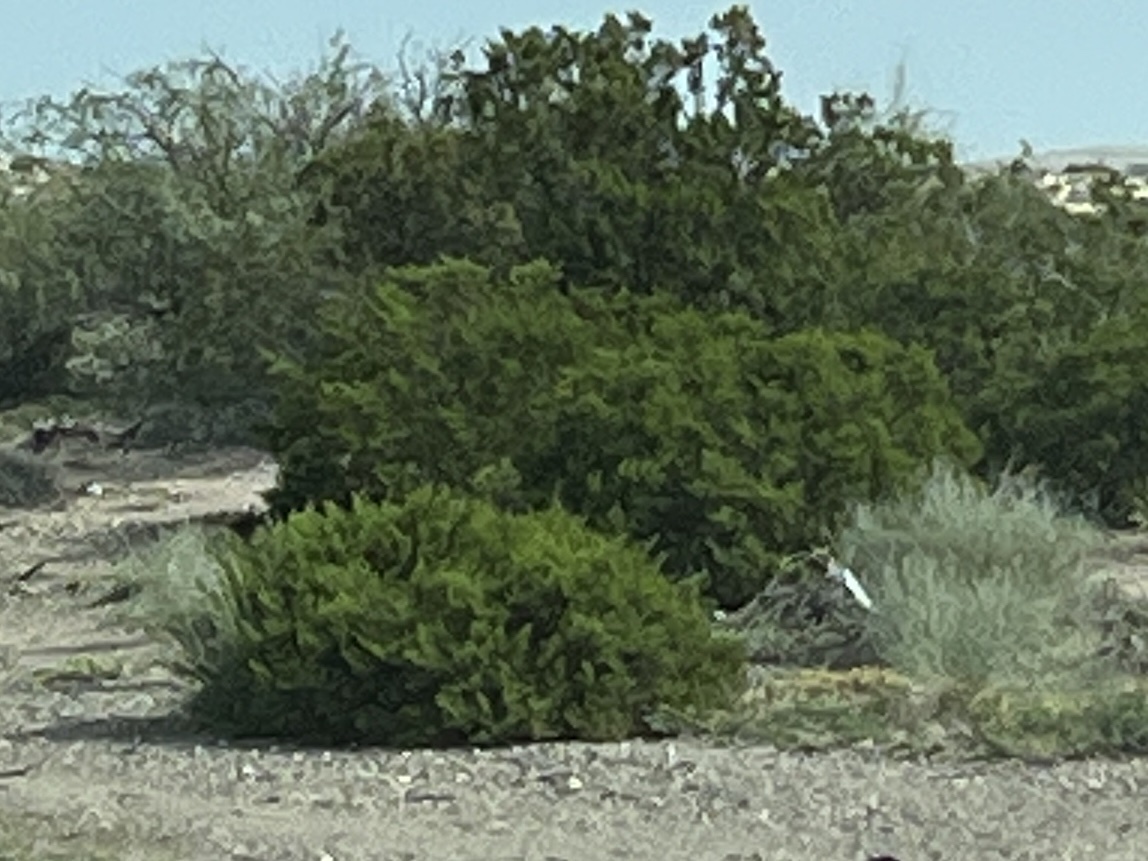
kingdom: Plantae
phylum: Tracheophyta
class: Magnoliopsida
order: Zygophyllales
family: Zygophyllaceae
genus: Larrea
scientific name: Larrea tridentata
